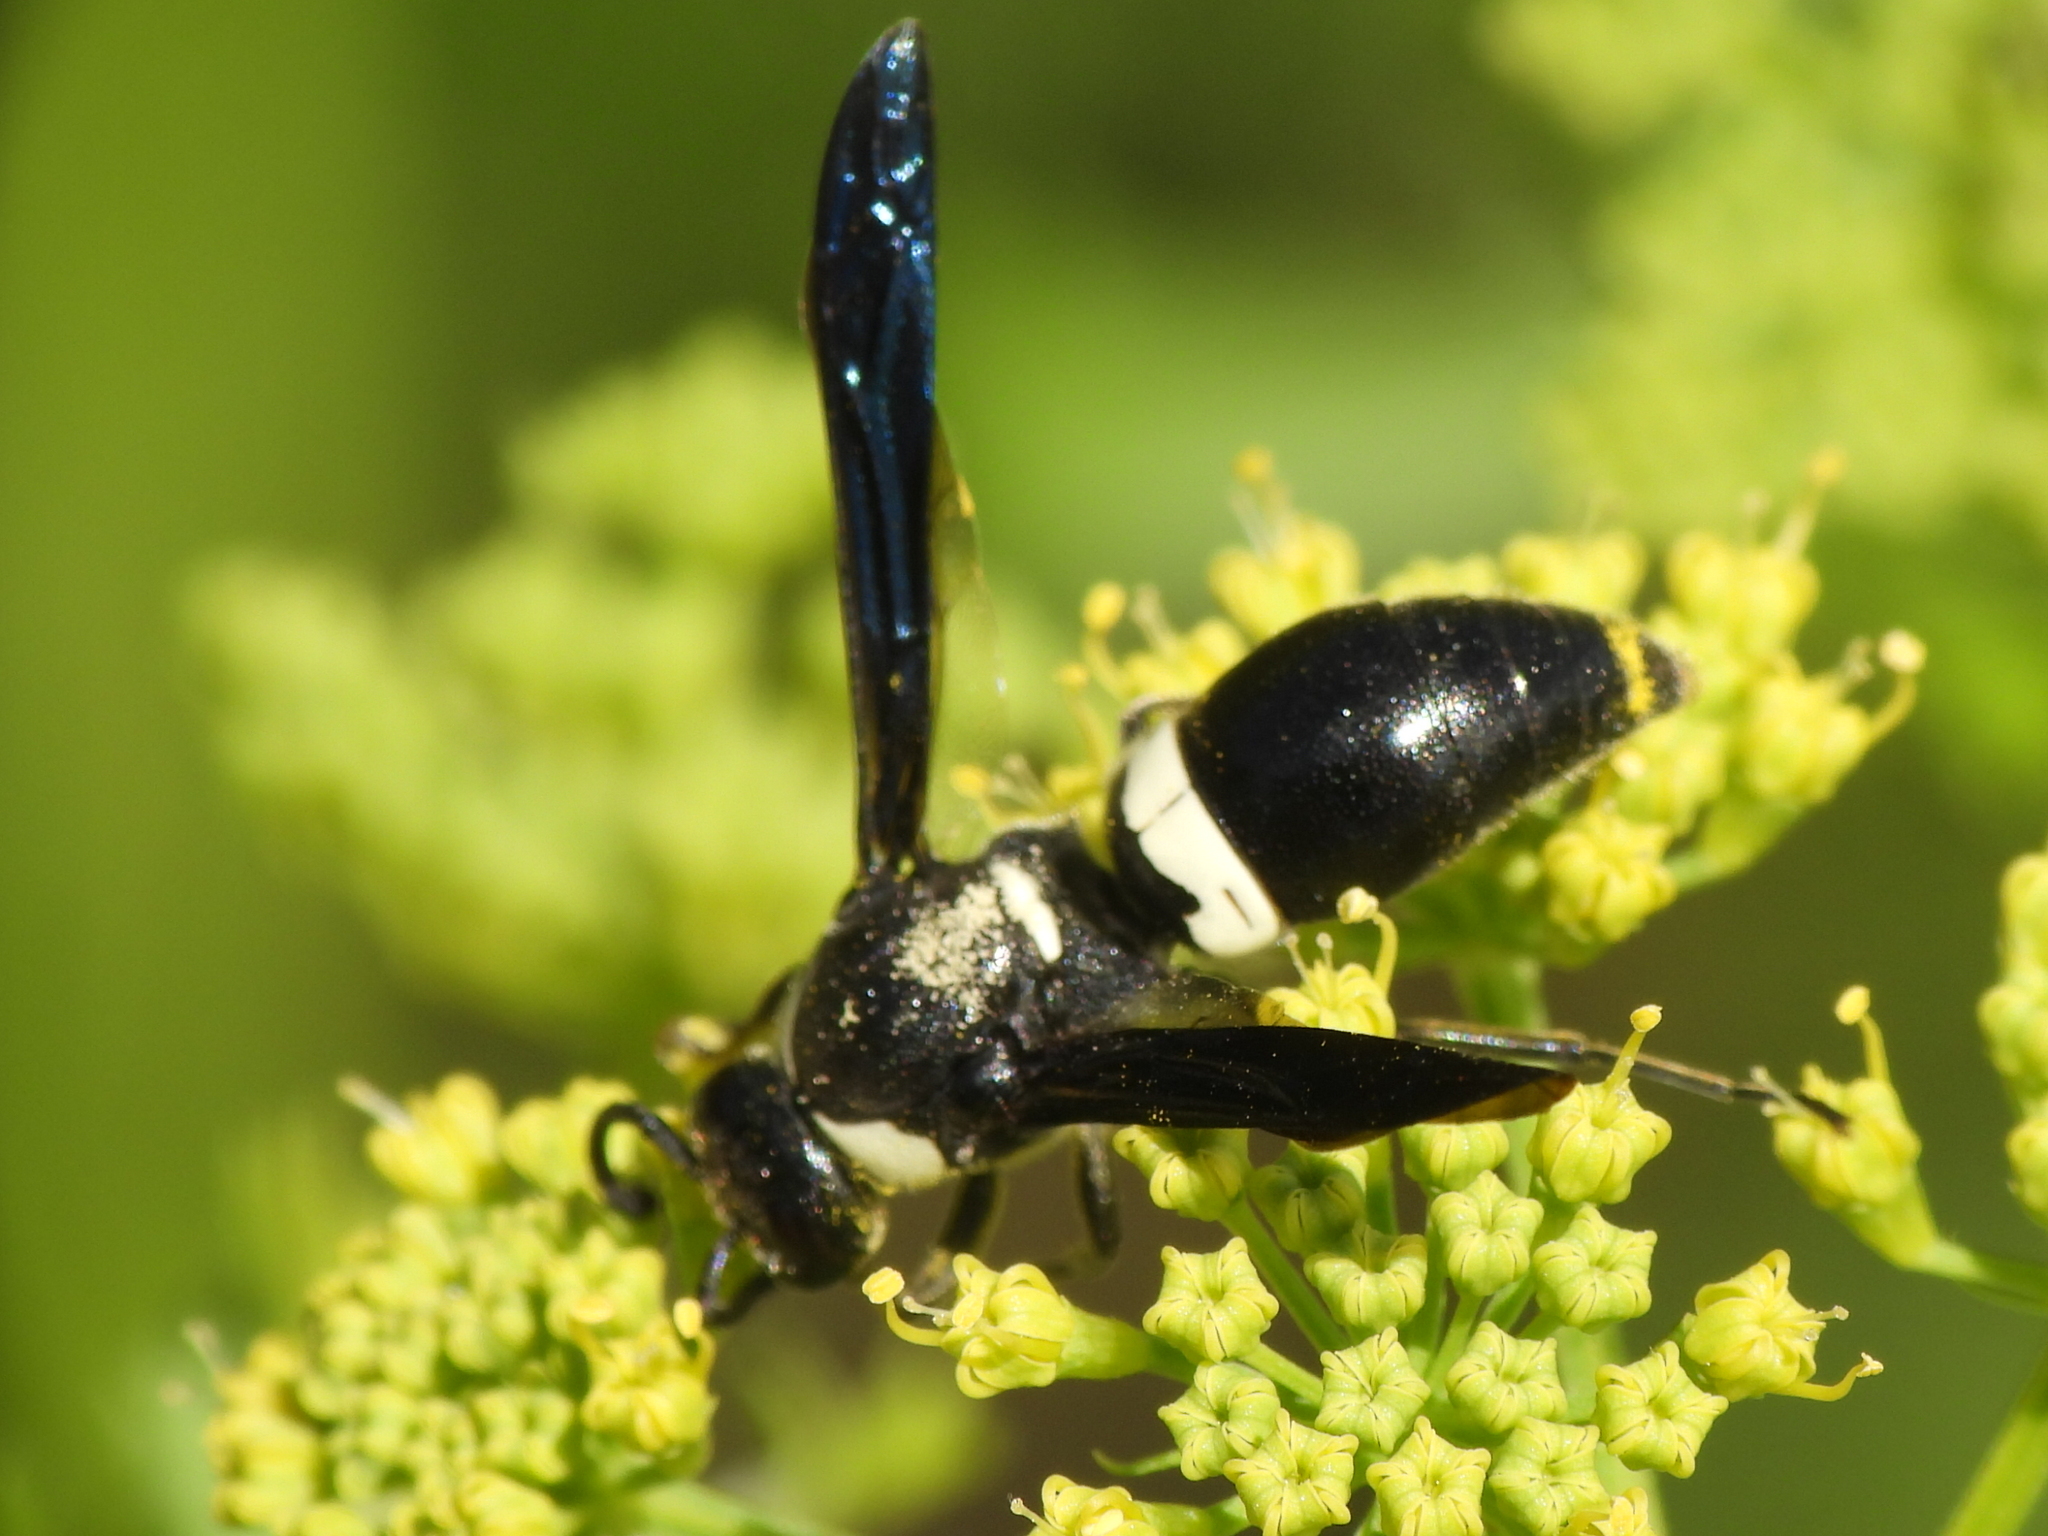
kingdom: Animalia
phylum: Arthropoda
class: Insecta
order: Hymenoptera
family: Eumenidae
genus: Monobia
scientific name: Monobia quadridens
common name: Four-toothed mason wasp
